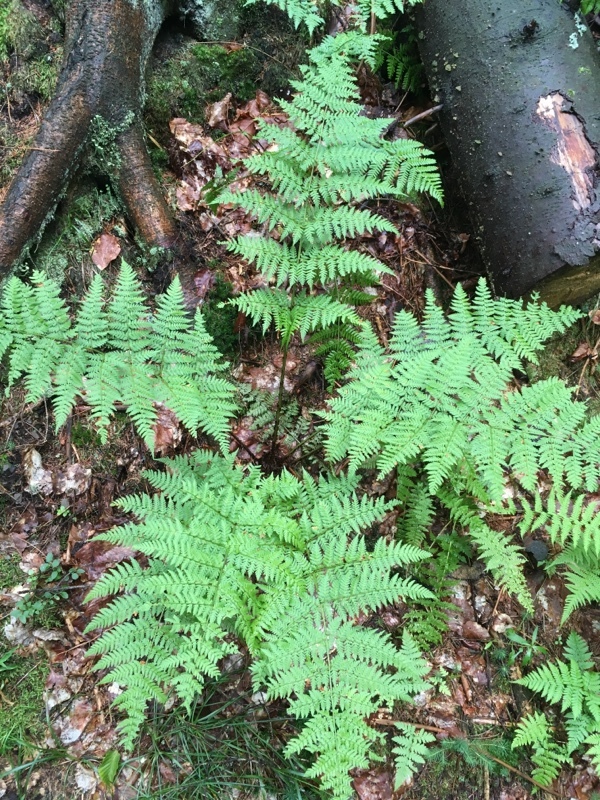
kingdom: Plantae
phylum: Tracheophyta
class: Polypodiopsida
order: Polypodiales
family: Dryopteridaceae
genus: Dryopteris
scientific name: Dryopteris expansa
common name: Northern buckler fern
